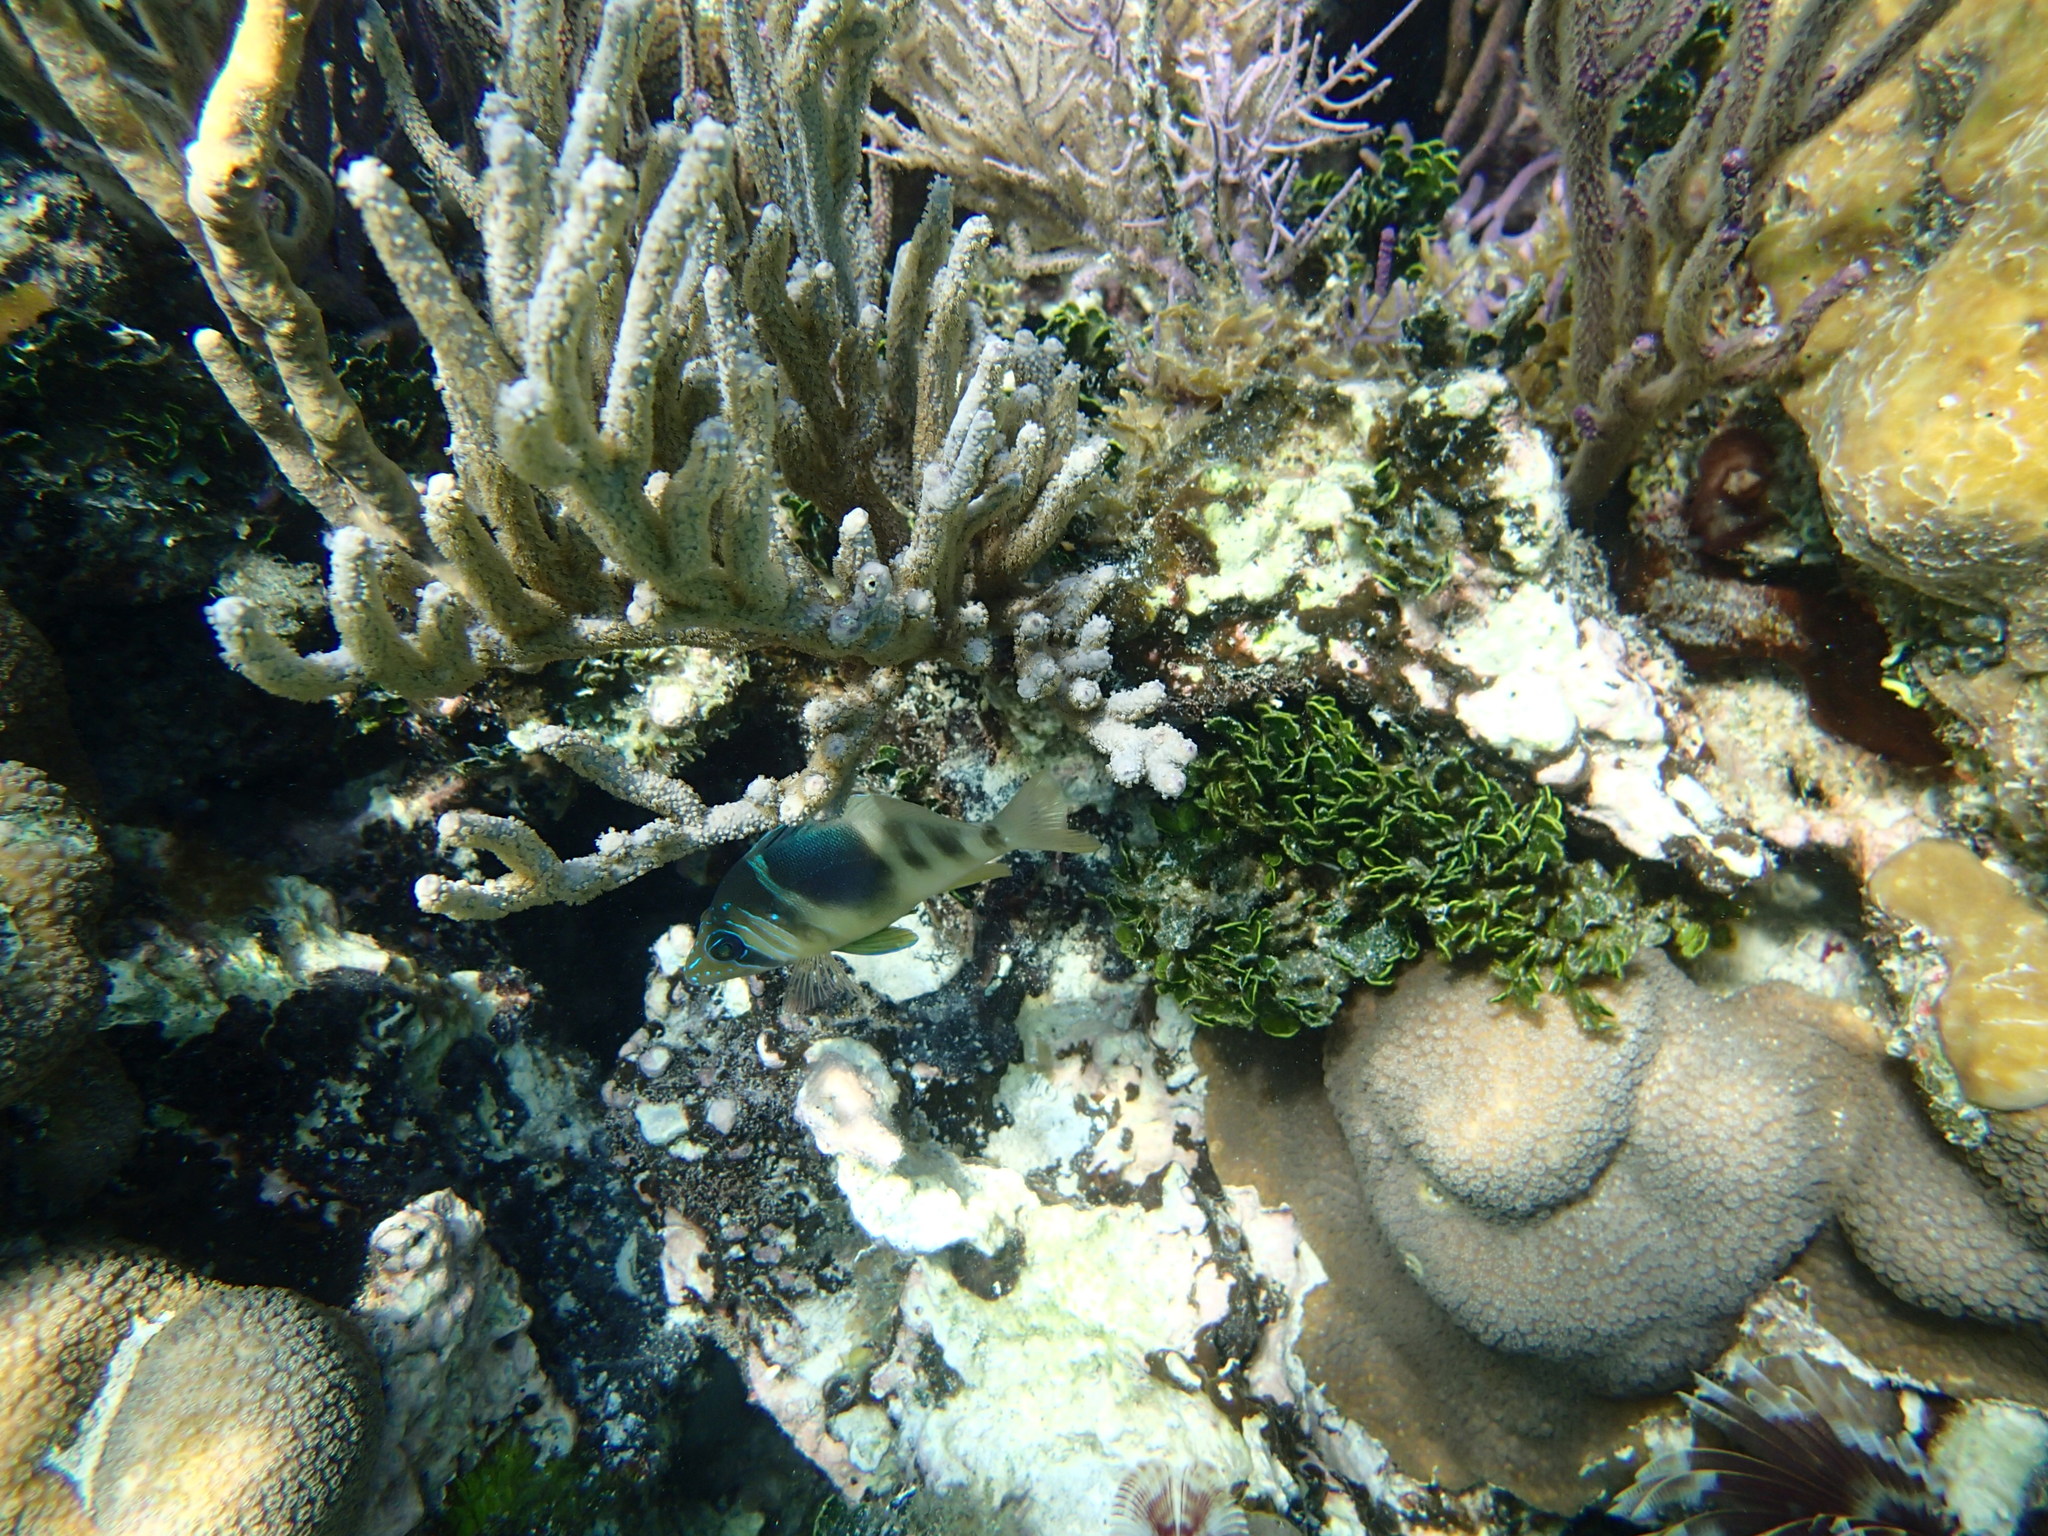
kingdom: Animalia
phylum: Chordata
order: Perciformes
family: Serranidae
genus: Hypoplectrus
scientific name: Hypoplectrus puella
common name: Barred hamlet
